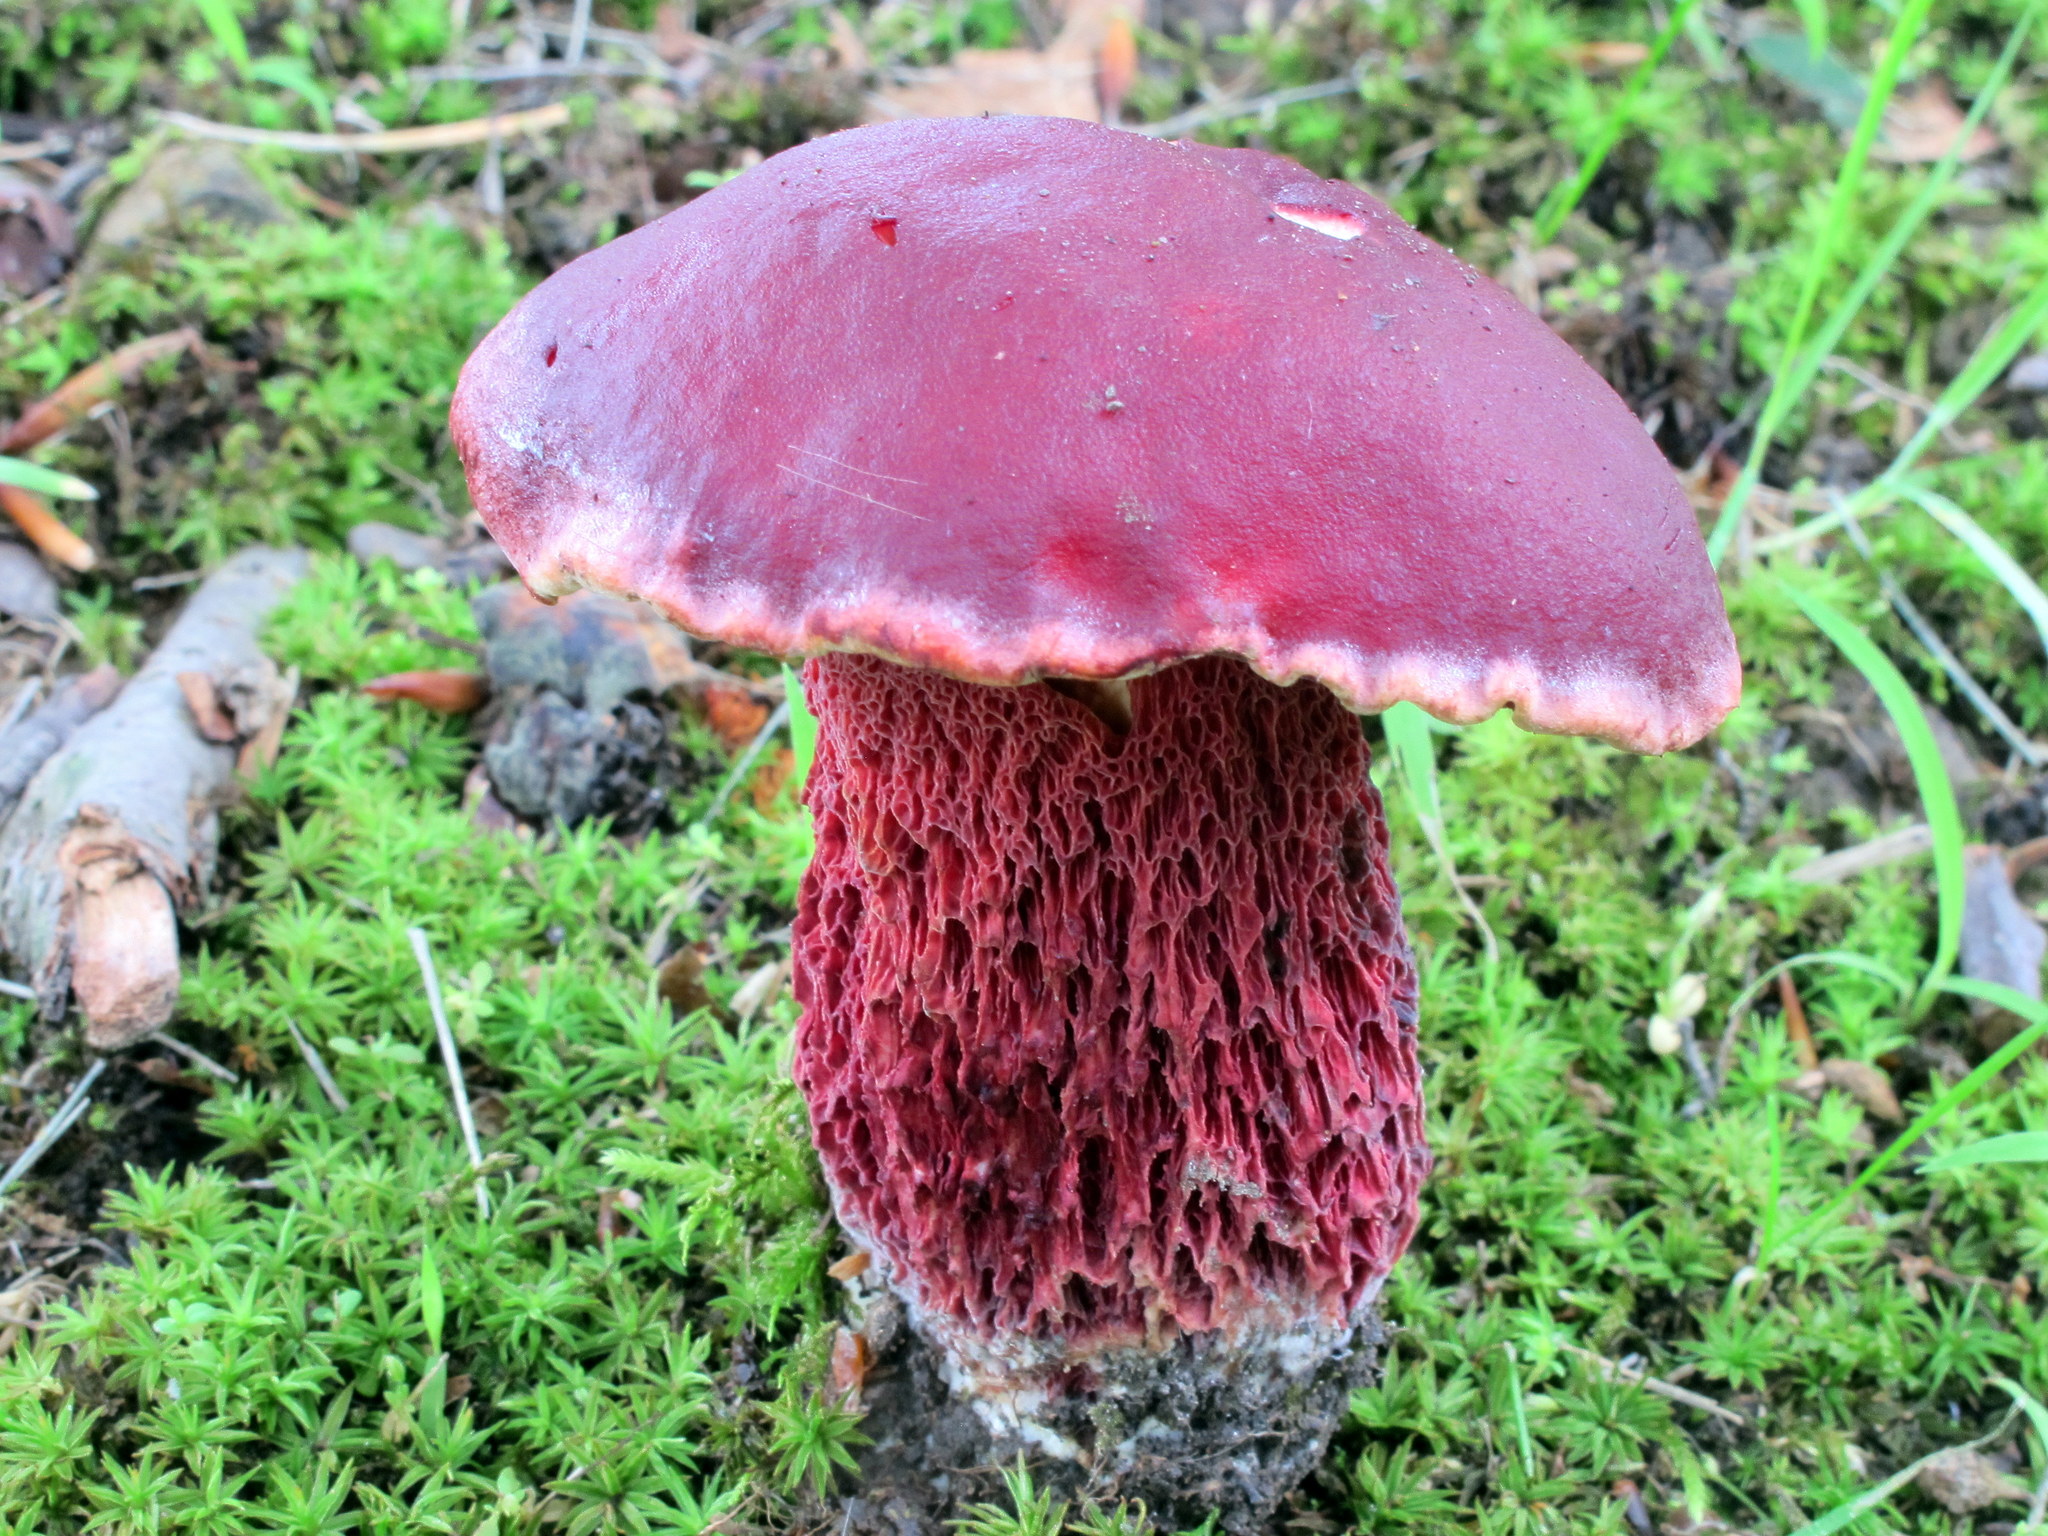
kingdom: Fungi
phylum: Basidiomycota
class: Agaricomycetes
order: Boletales
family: Boletaceae
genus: Butyriboletus
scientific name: Butyriboletus frostii
